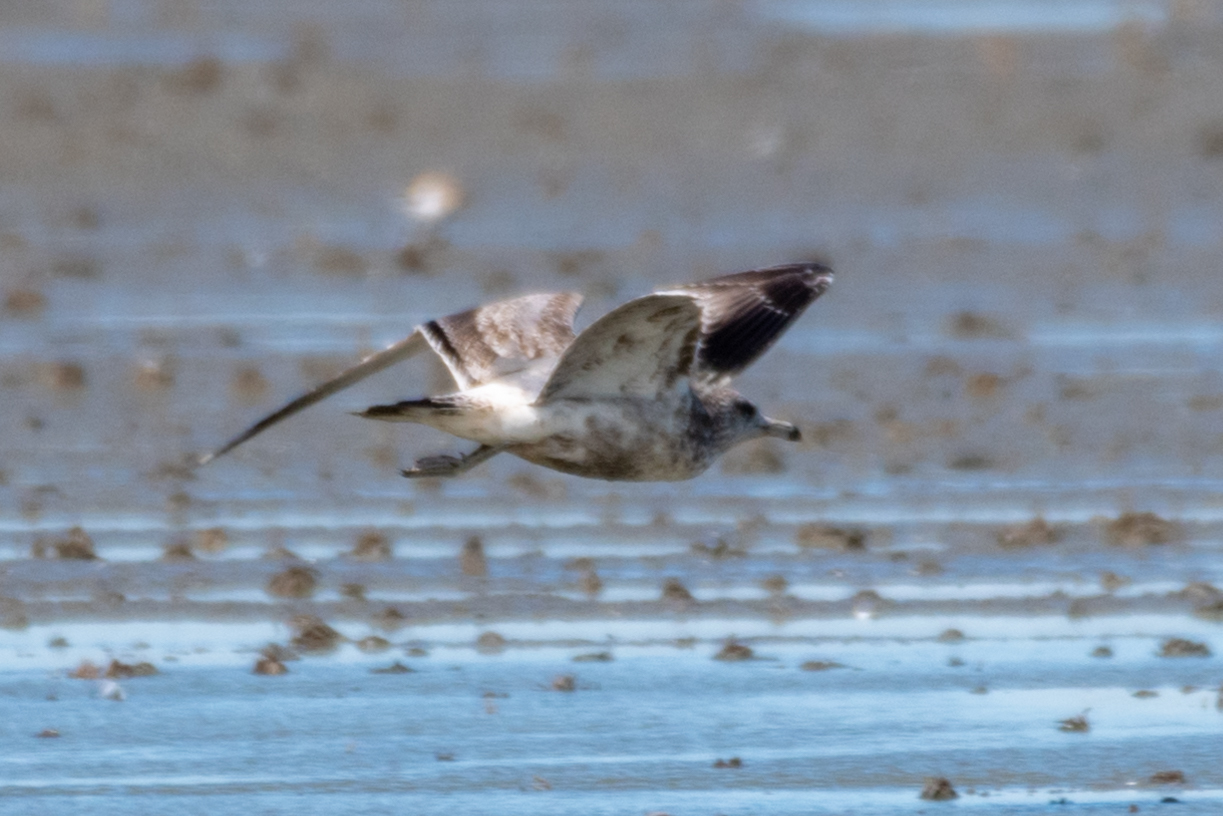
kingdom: Animalia
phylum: Chordata
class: Aves
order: Charadriiformes
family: Laridae
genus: Larus
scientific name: Larus californicus
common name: California gull
